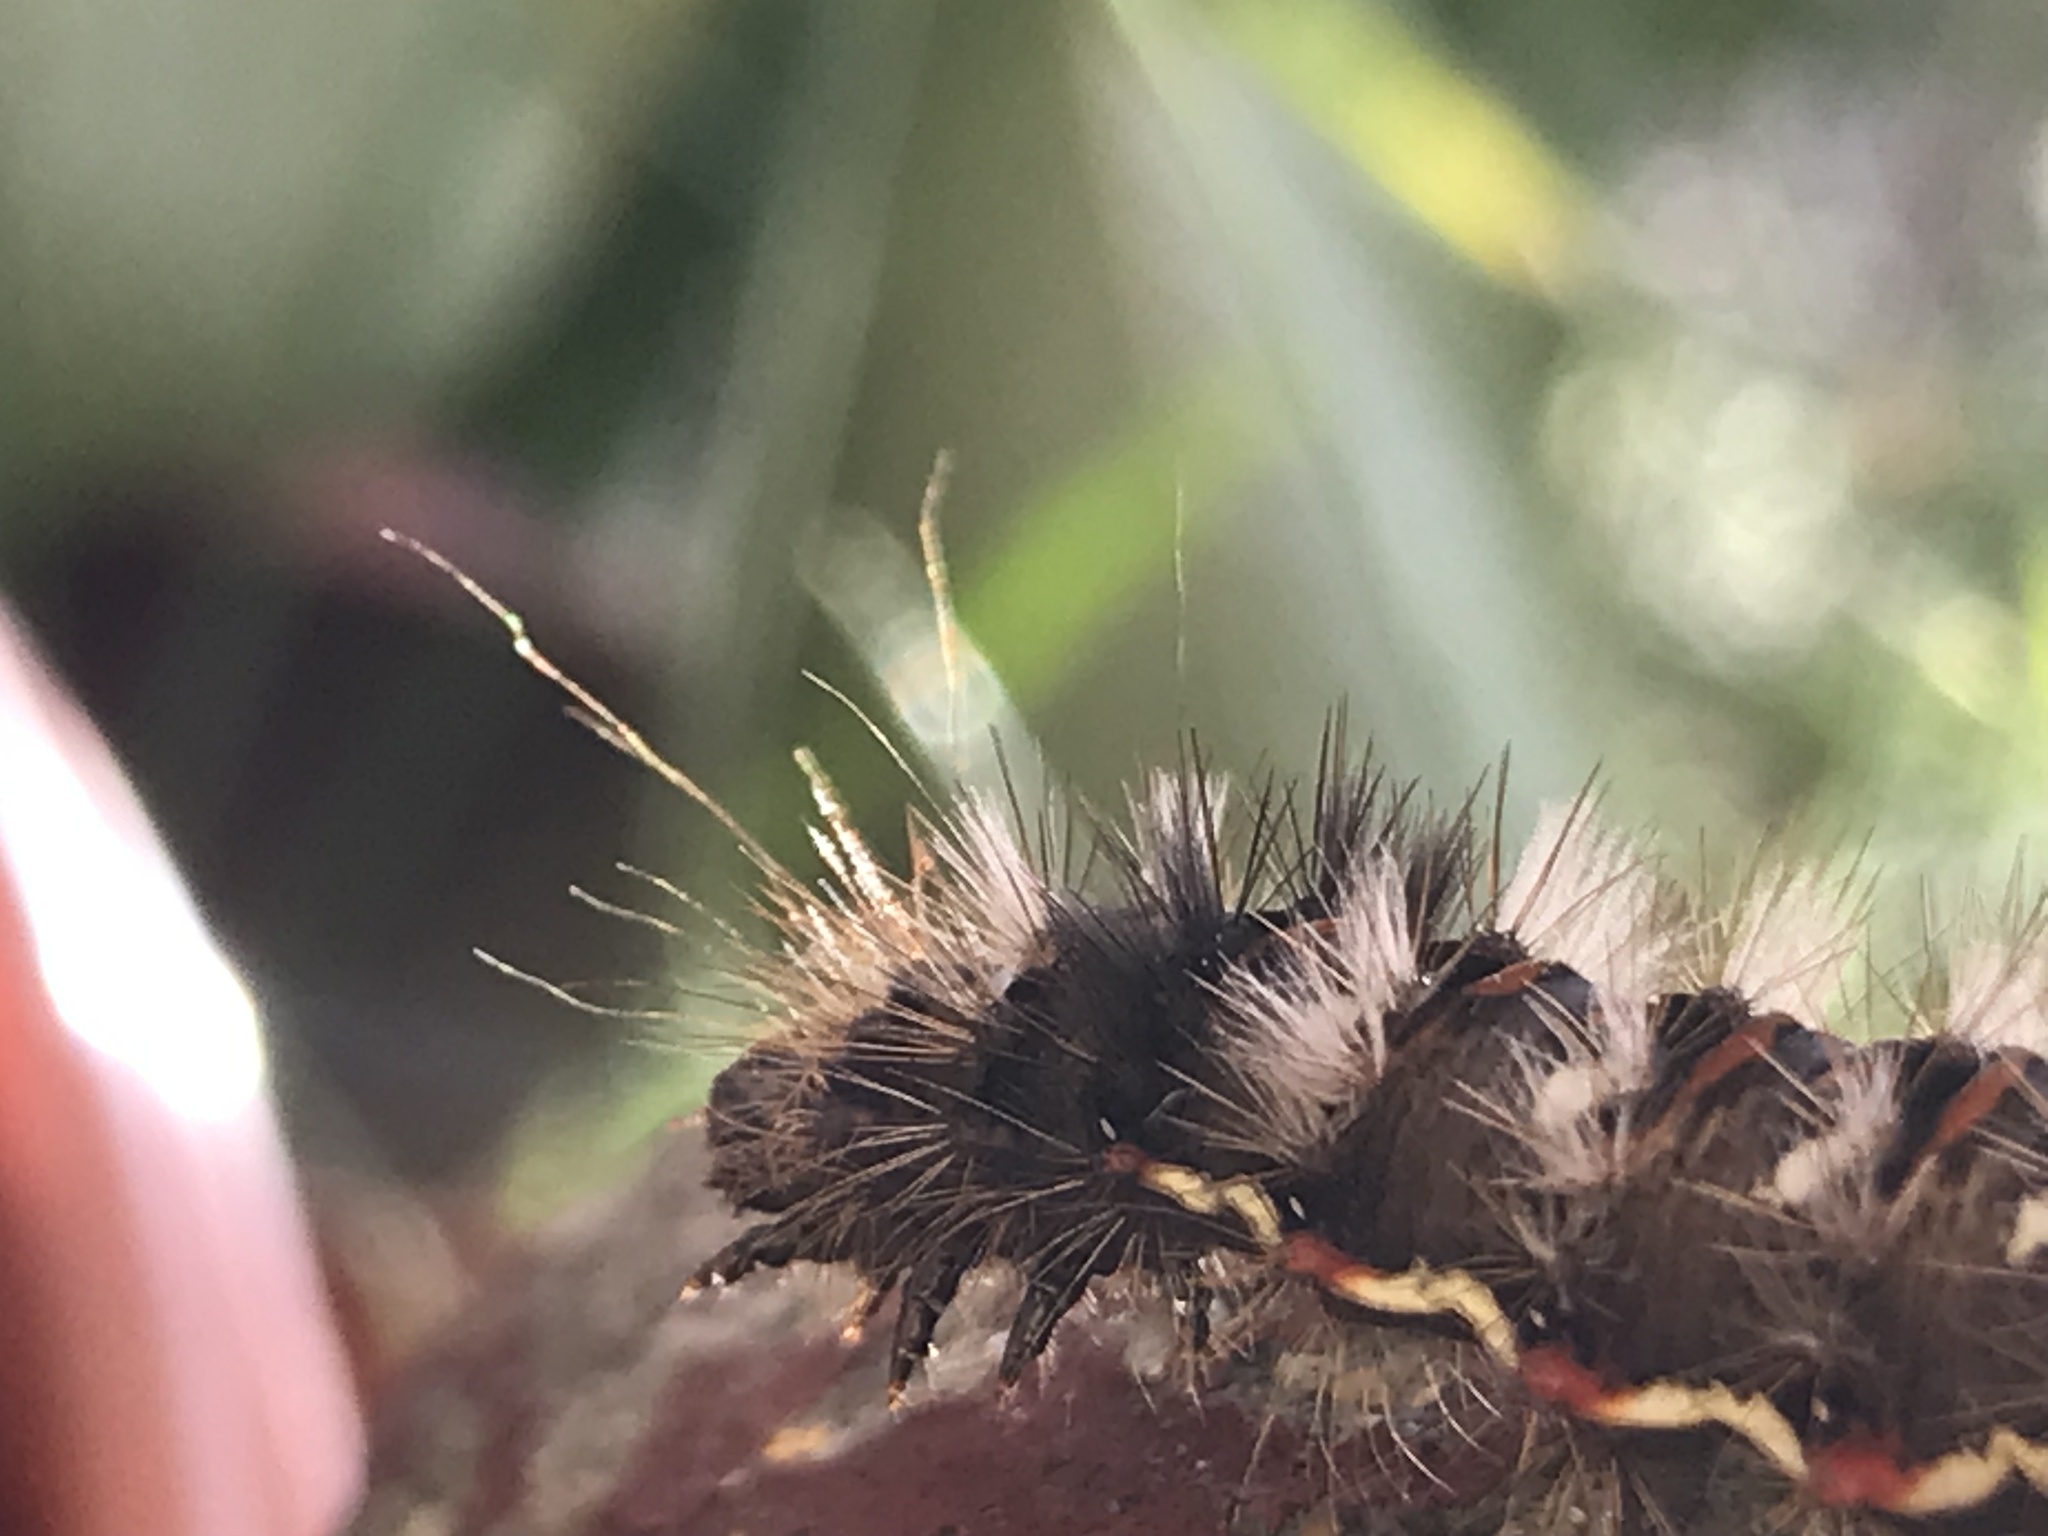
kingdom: Animalia
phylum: Arthropoda
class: Insecta
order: Lepidoptera
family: Noctuidae
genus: Acronicta
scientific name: Acronicta rumicis
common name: Knot grass
